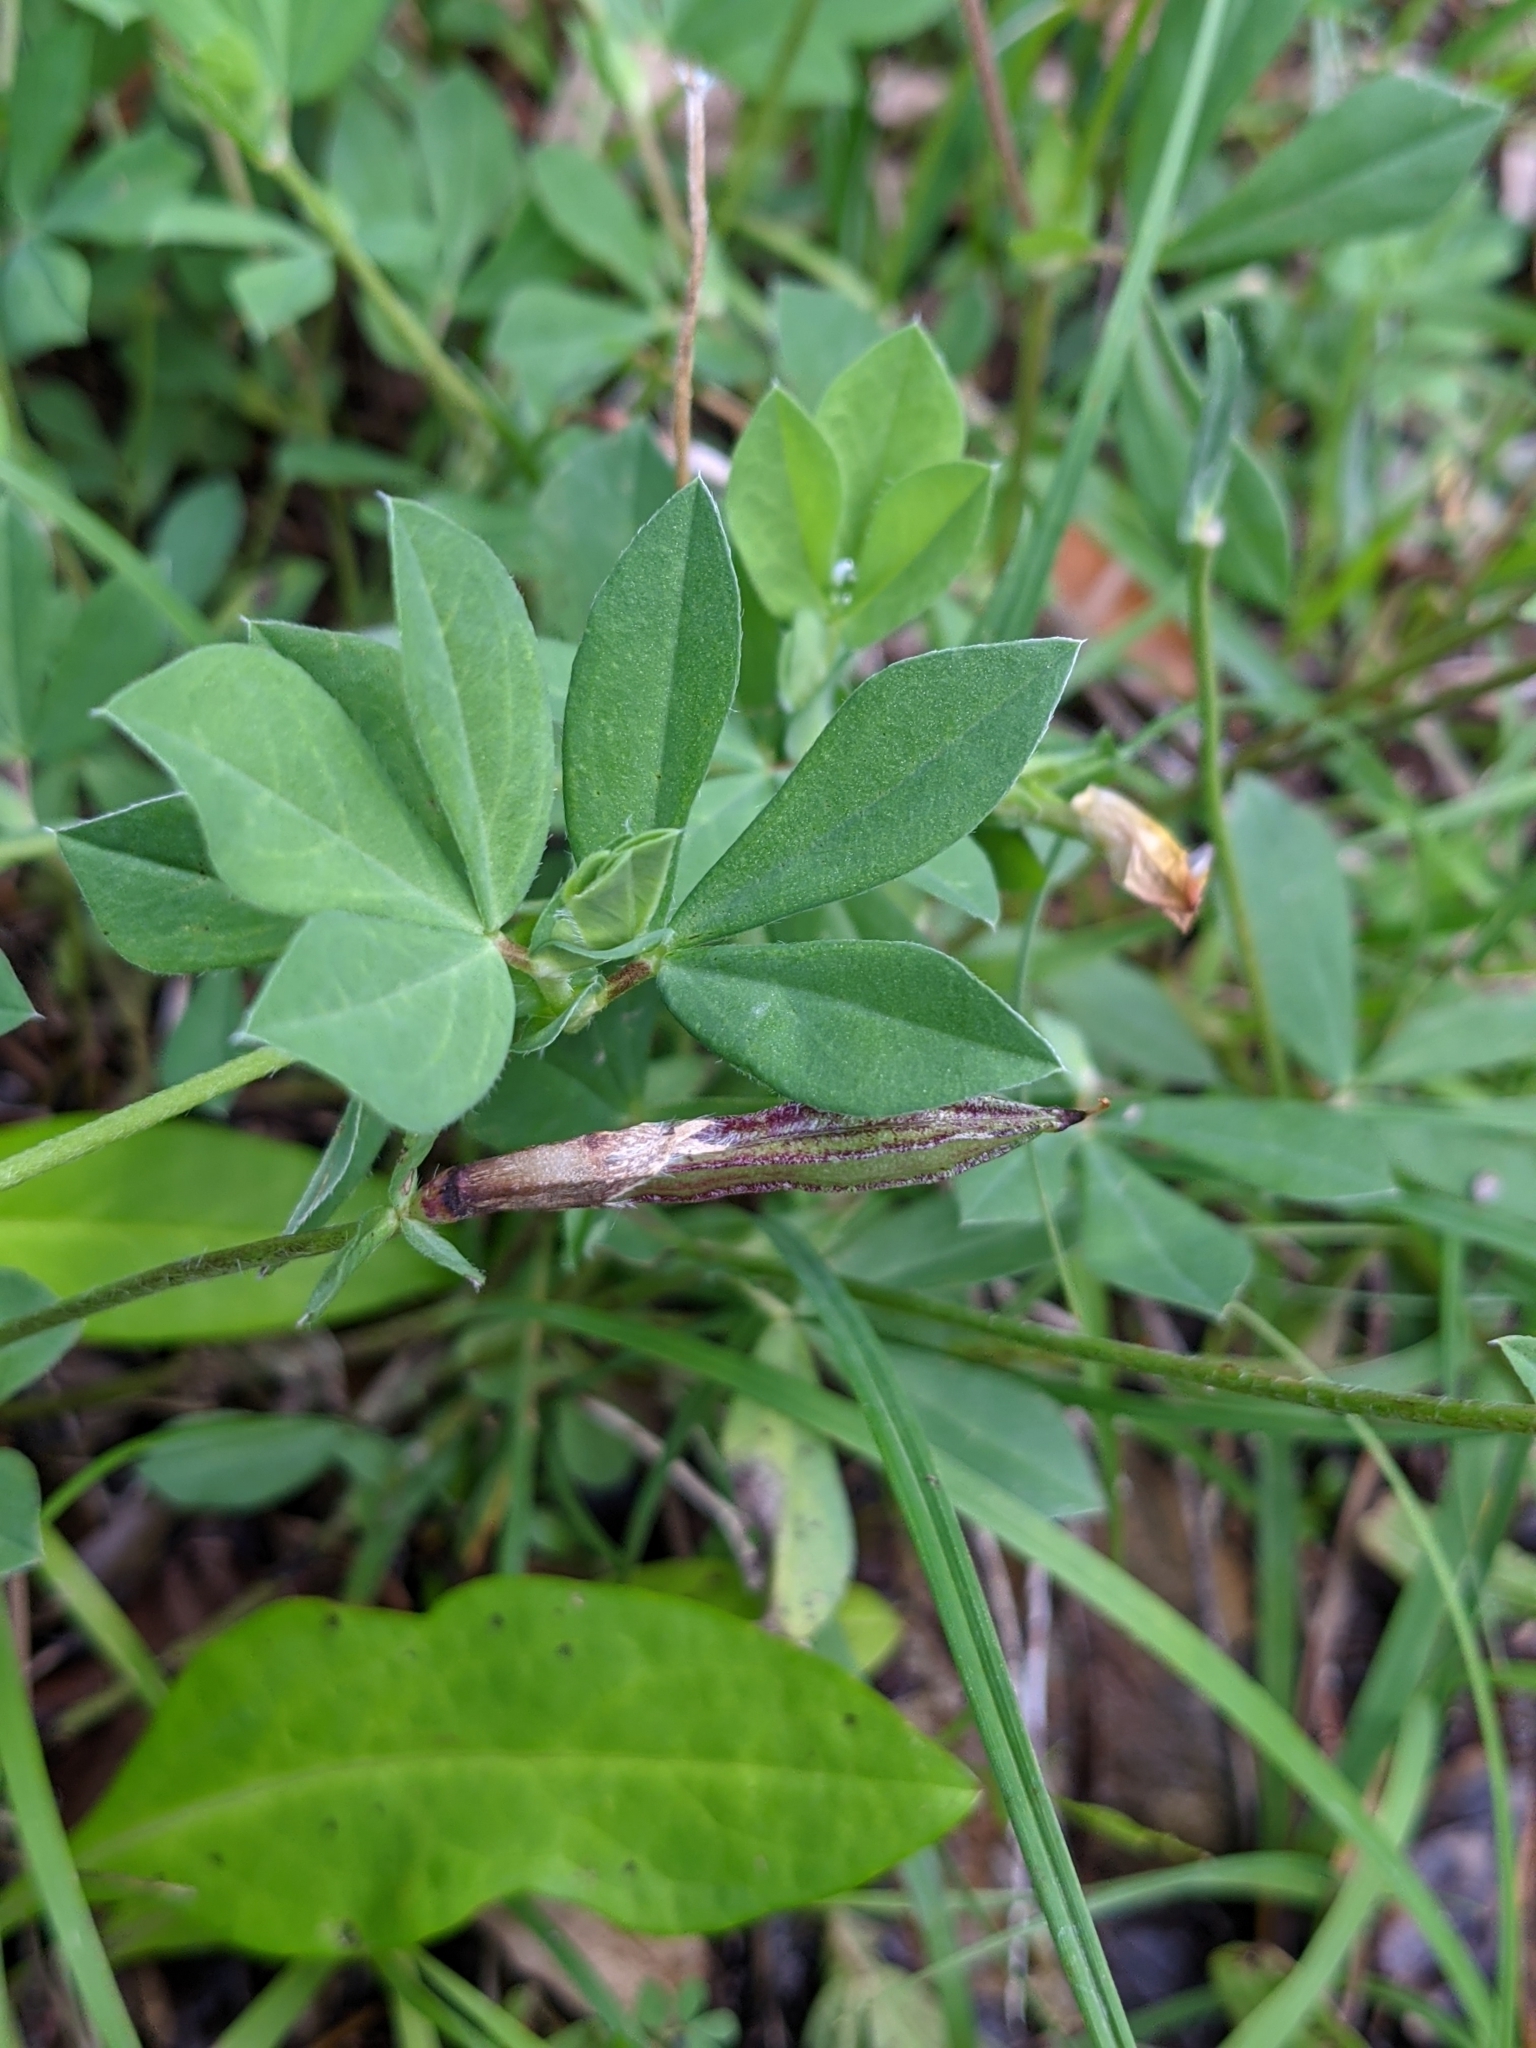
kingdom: Plantae
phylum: Tracheophyta
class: Magnoliopsida
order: Fabales
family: Fabaceae
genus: Lotus
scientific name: Lotus maritimus
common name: Dragon's-teeth
